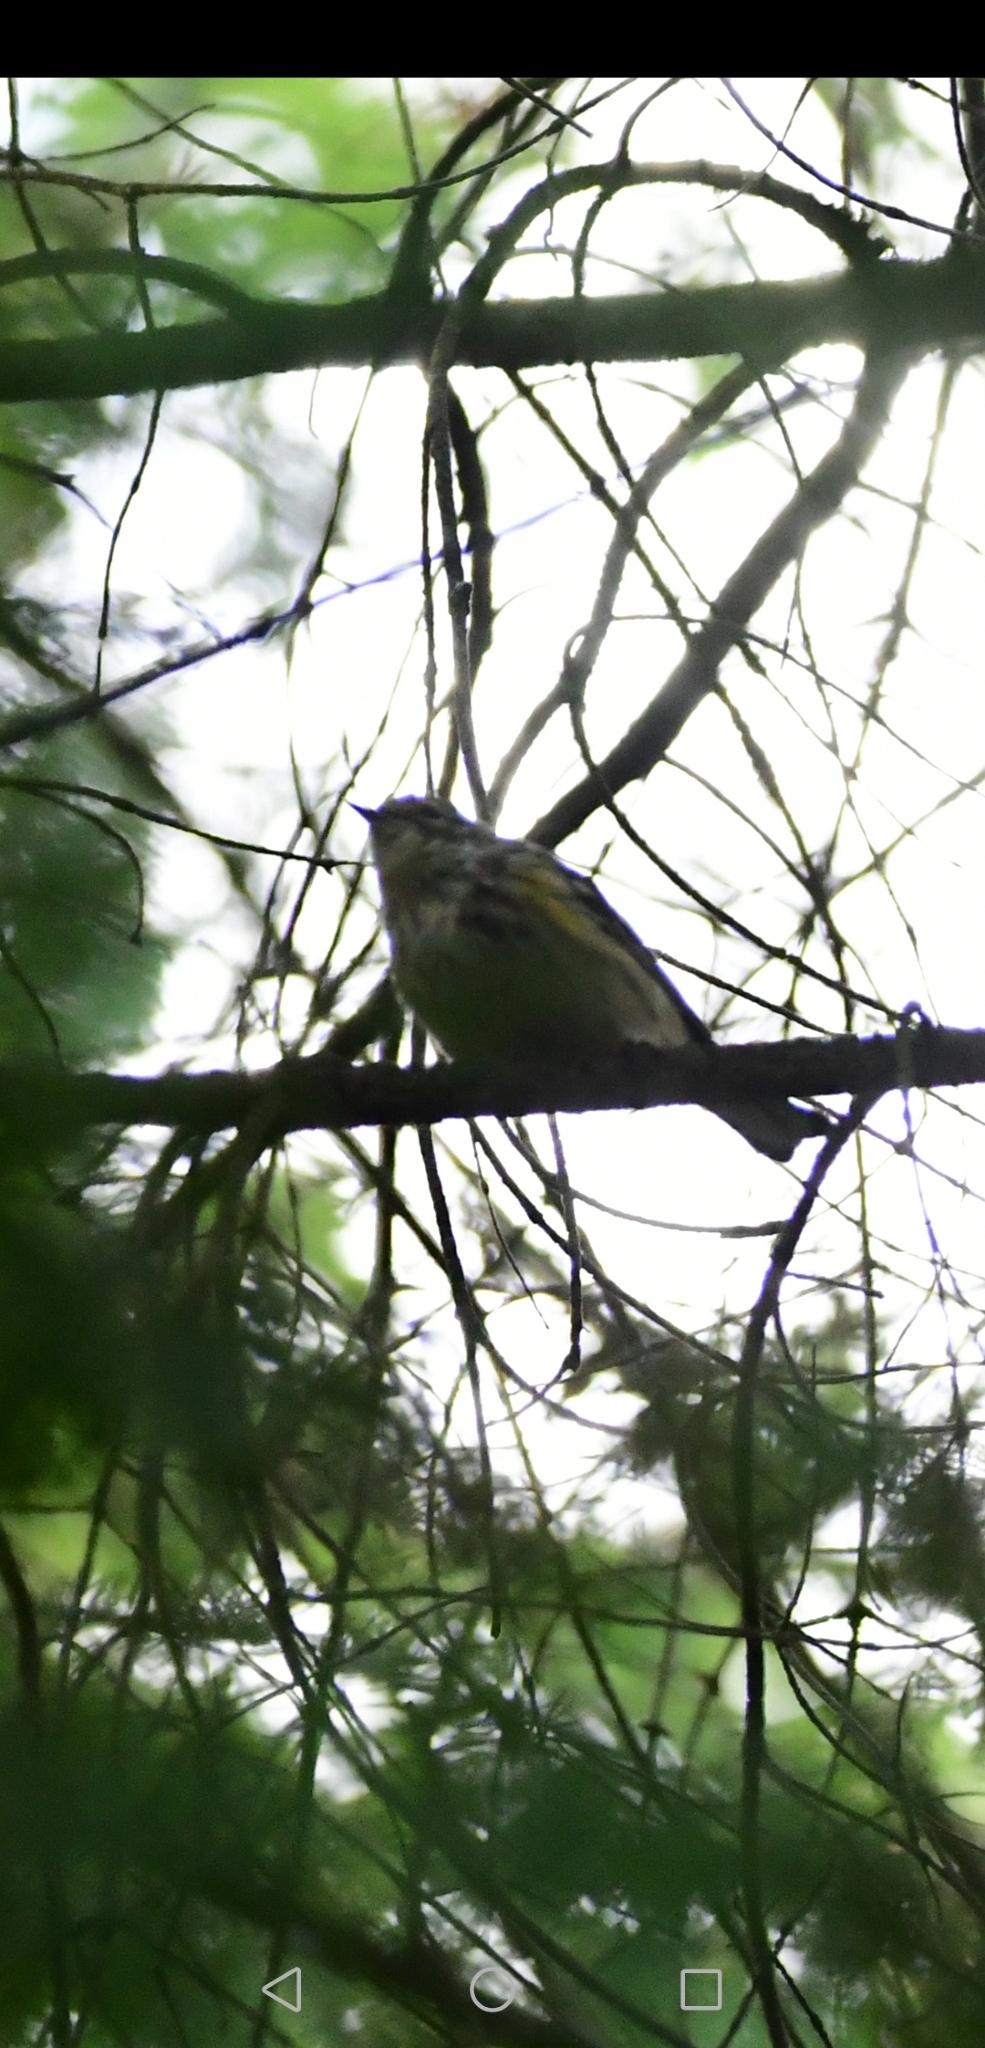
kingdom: Animalia
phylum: Chordata
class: Aves
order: Passeriformes
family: Parulidae
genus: Setophaga
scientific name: Setophaga coronata
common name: Myrtle warbler
